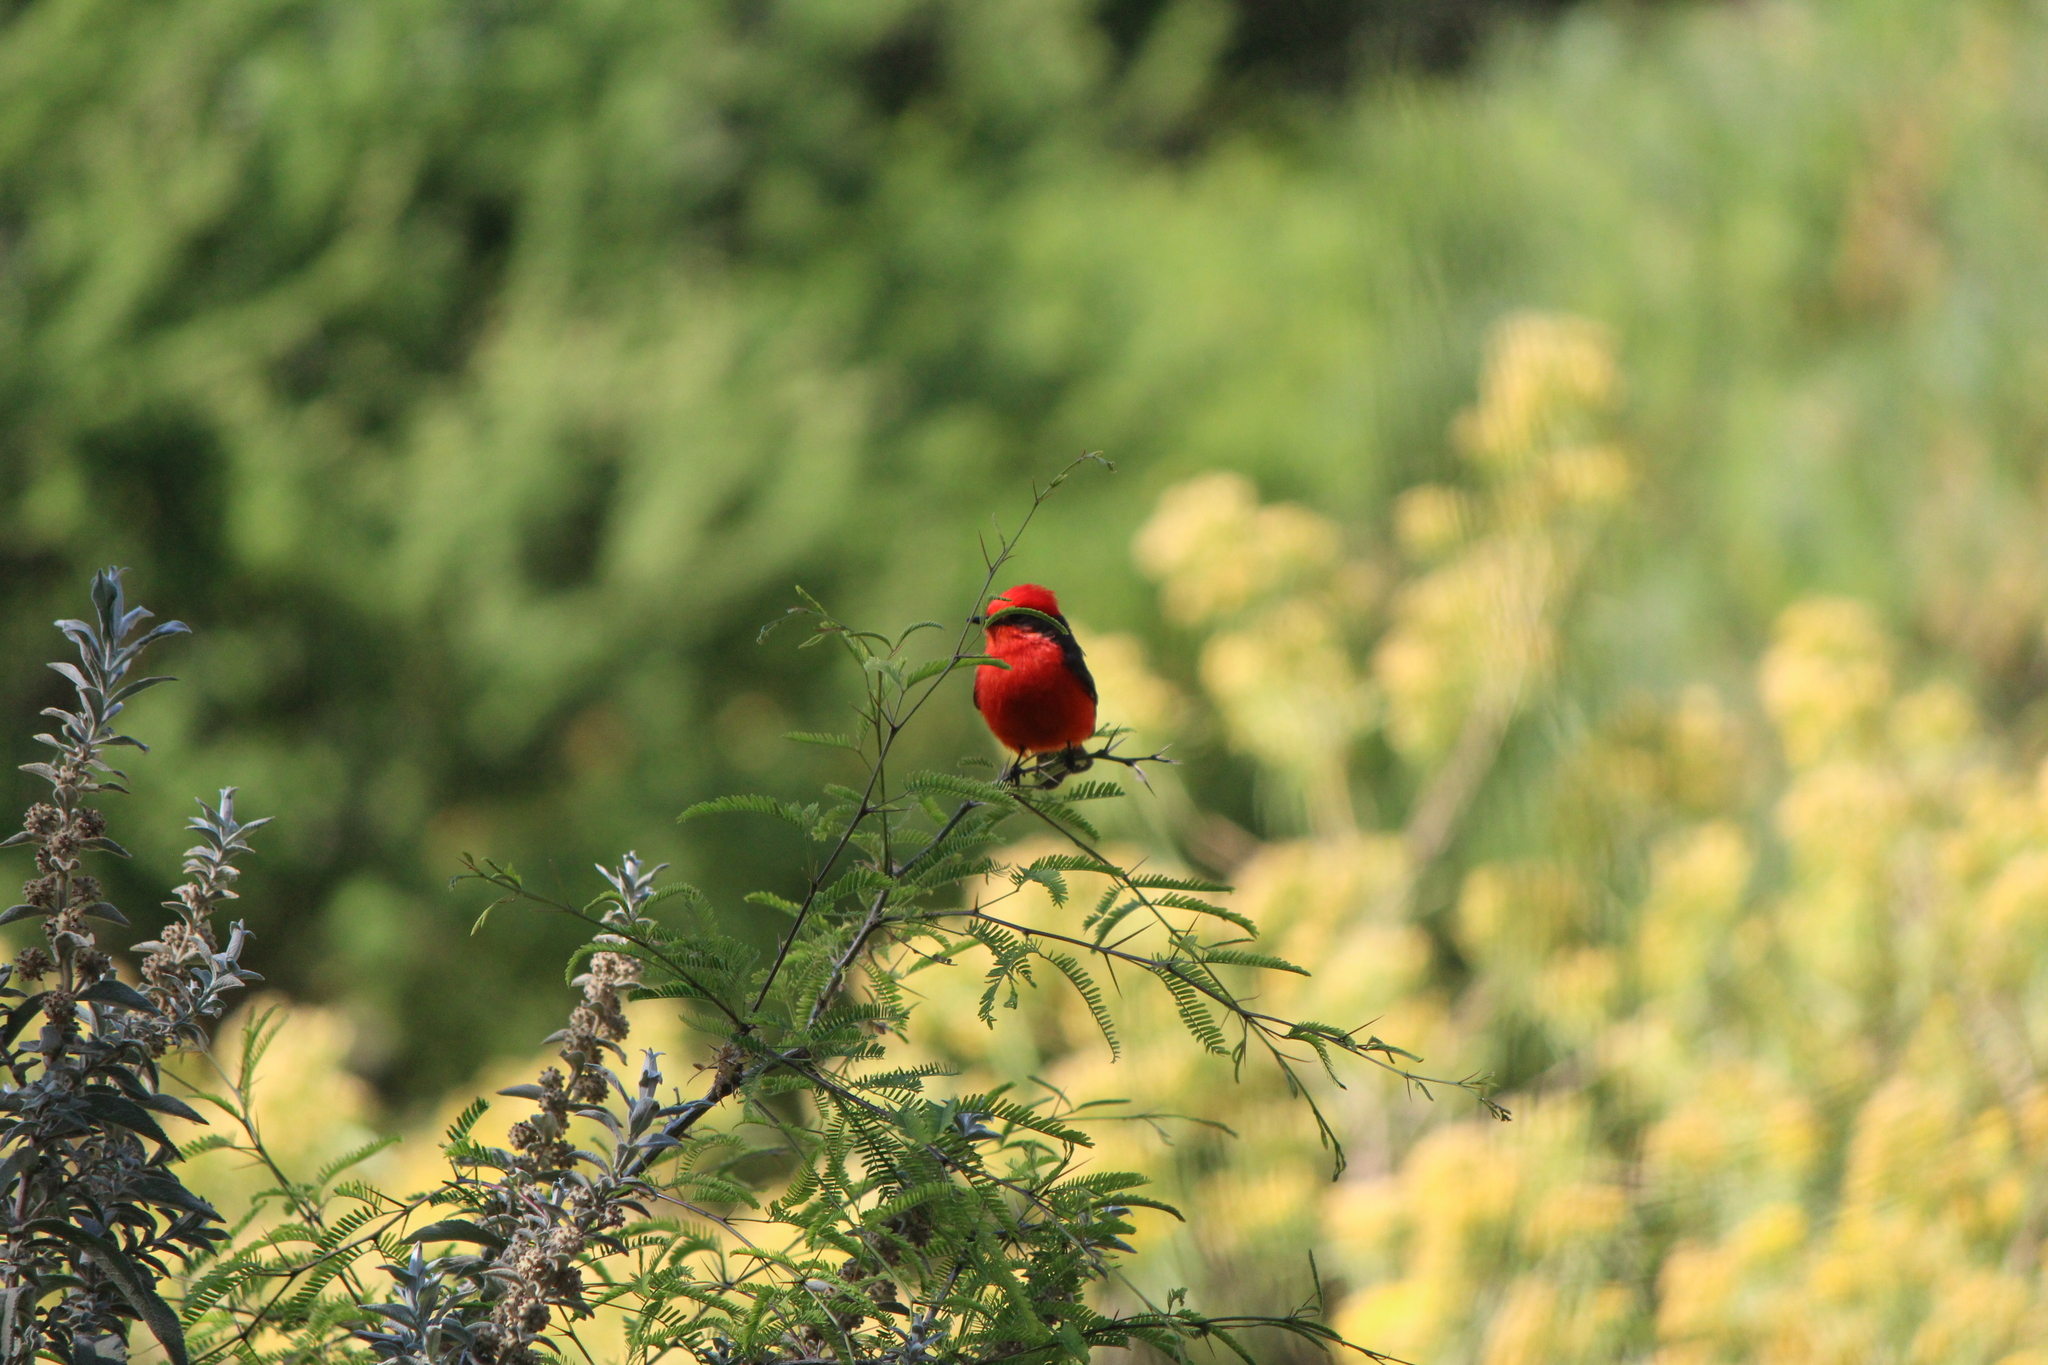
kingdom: Animalia
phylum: Chordata
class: Aves
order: Passeriformes
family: Tyrannidae
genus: Pyrocephalus
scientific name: Pyrocephalus rubinus
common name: Vermilion flycatcher
